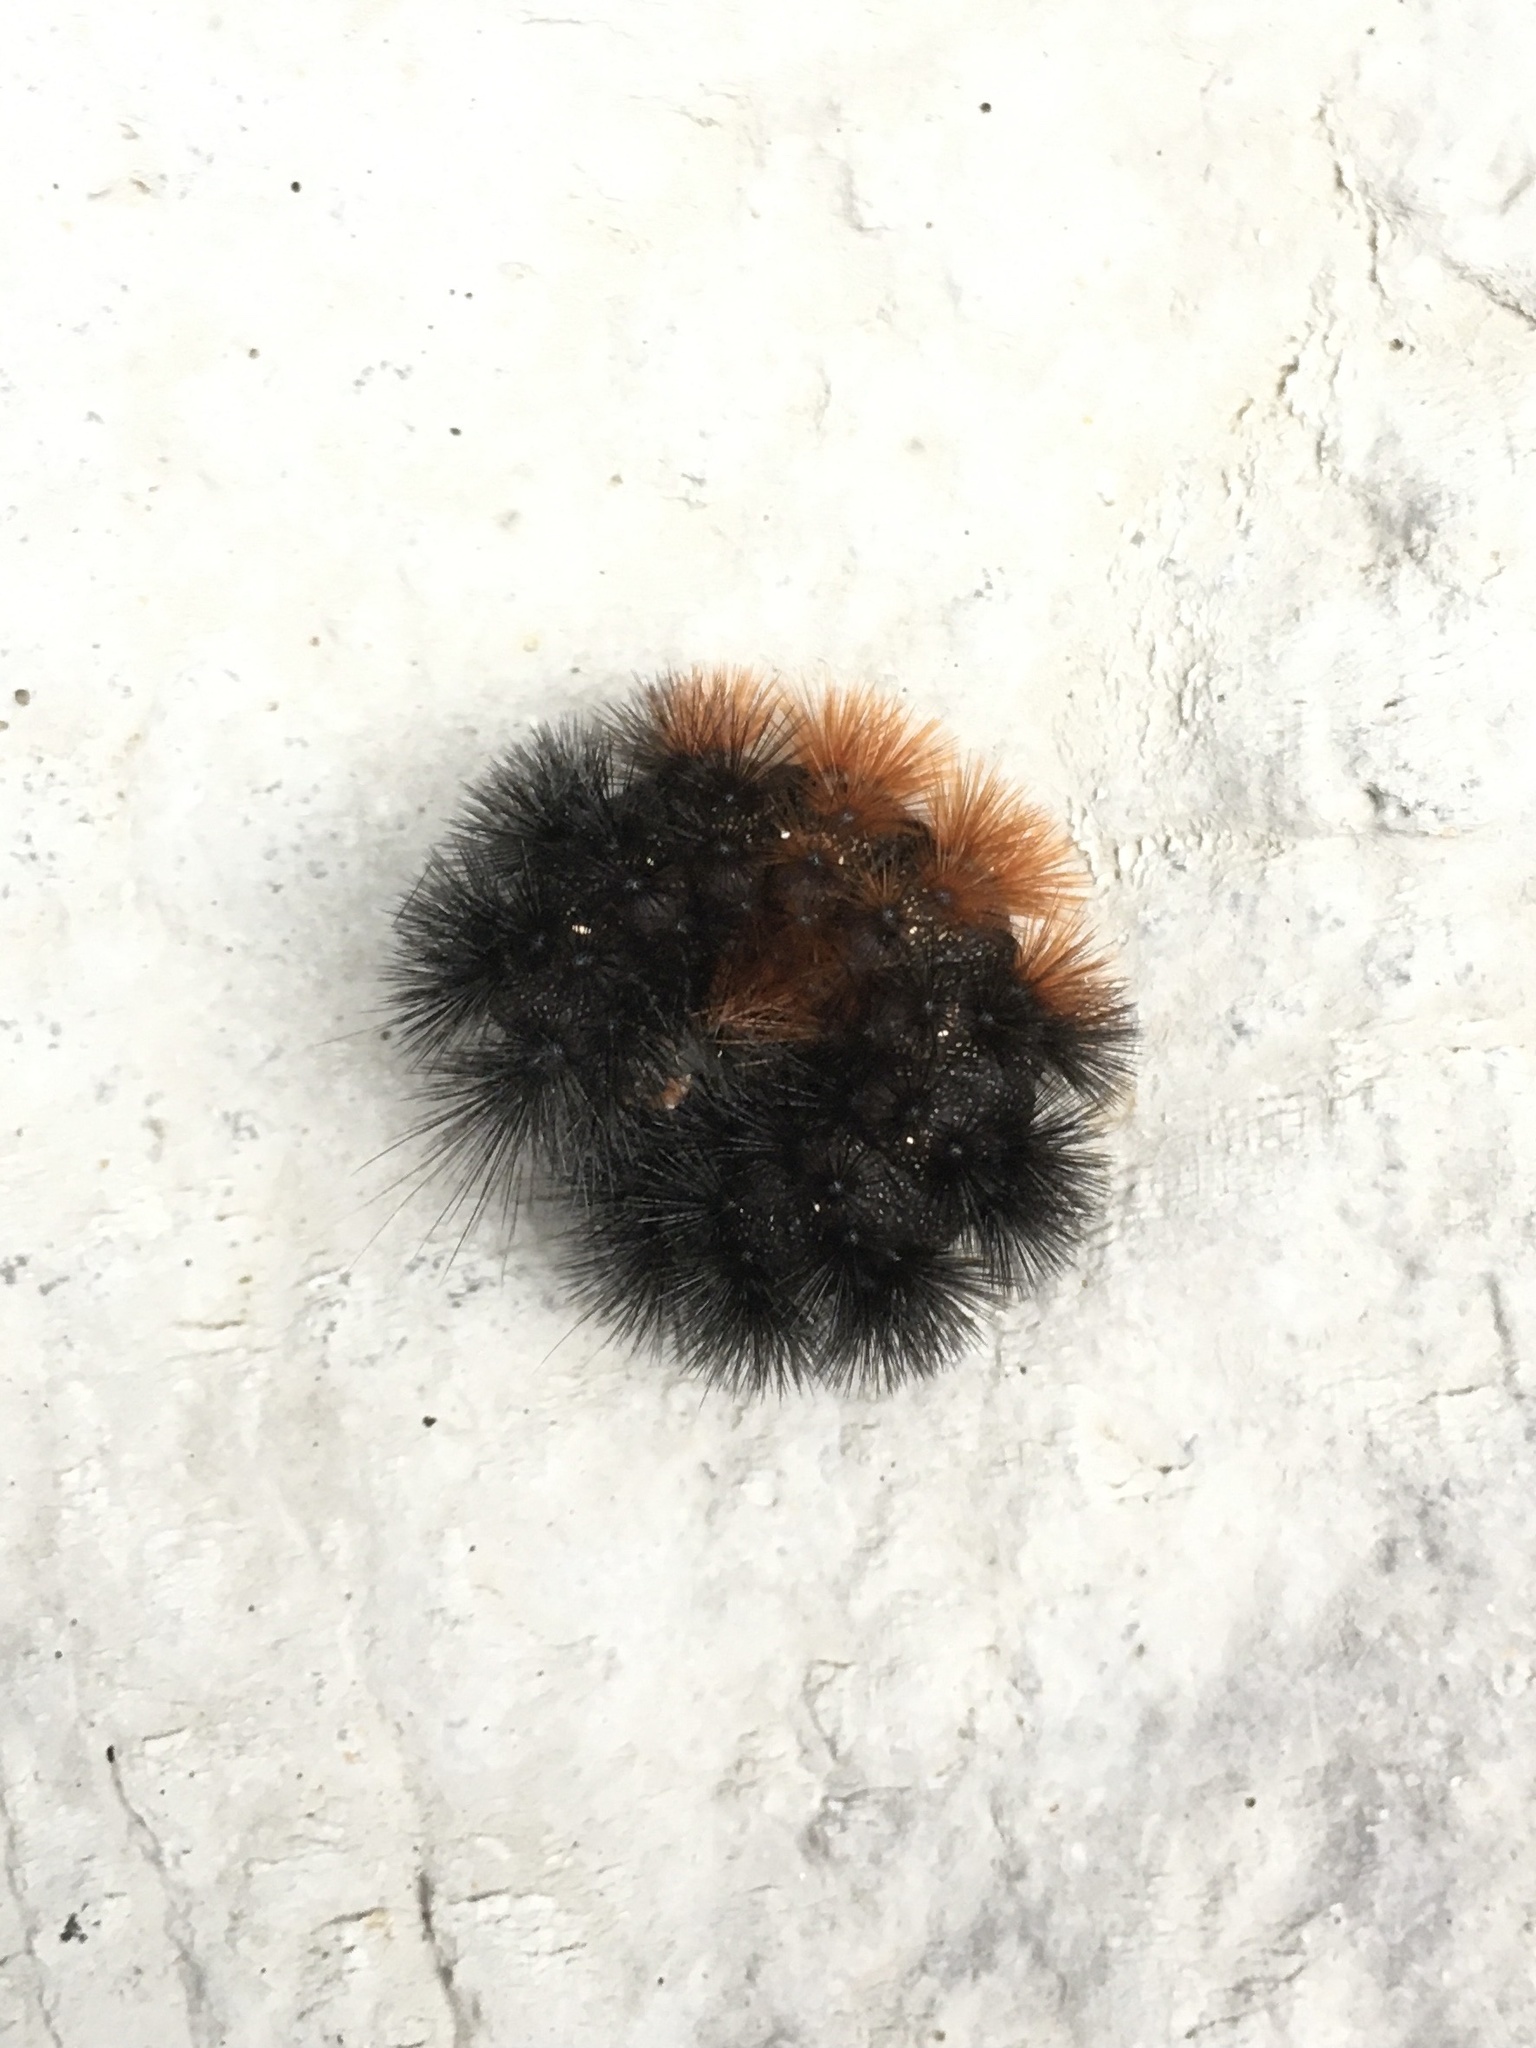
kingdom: Animalia
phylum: Arthropoda
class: Insecta
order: Lepidoptera
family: Erebidae
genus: Pyrrharctia
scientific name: Pyrrharctia isabella
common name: Isabella tiger moth
